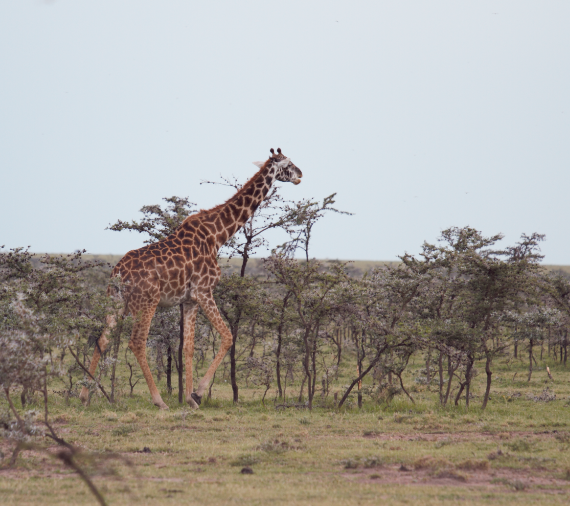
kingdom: Animalia
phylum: Chordata
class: Mammalia
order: Artiodactyla
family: Giraffidae
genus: Giraffa
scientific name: Giraffa tippelskirchi
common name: Masai giraffe
